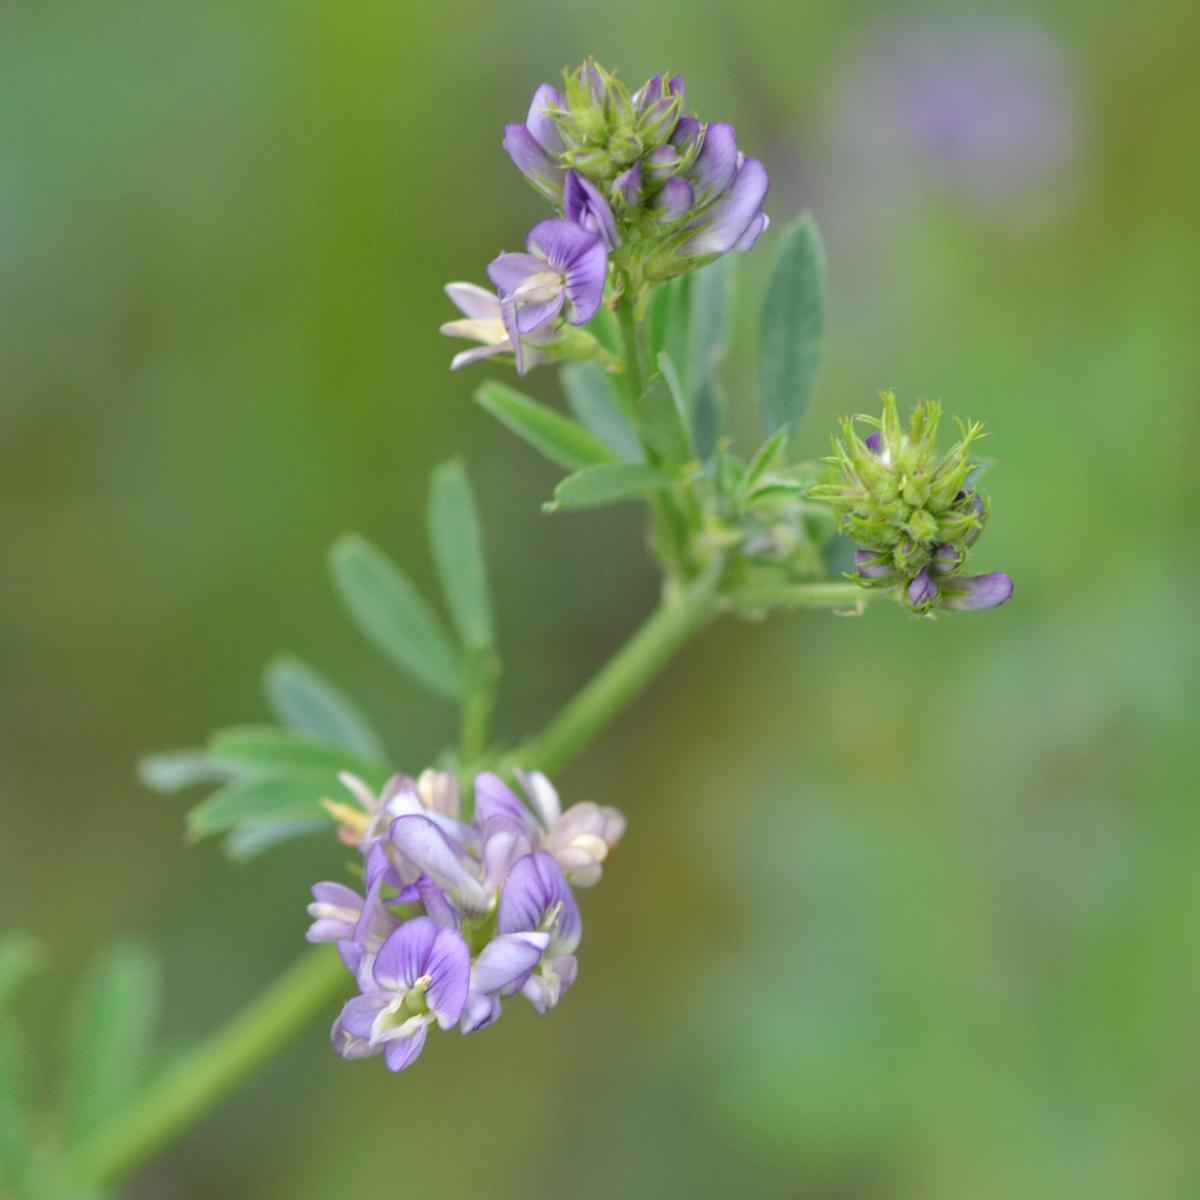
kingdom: Plantae
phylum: Tracheophyta
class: Magnoliopsida
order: Fabales
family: Fabaceae
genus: Medicago
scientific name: Medicago varia
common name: Sand lucerne
